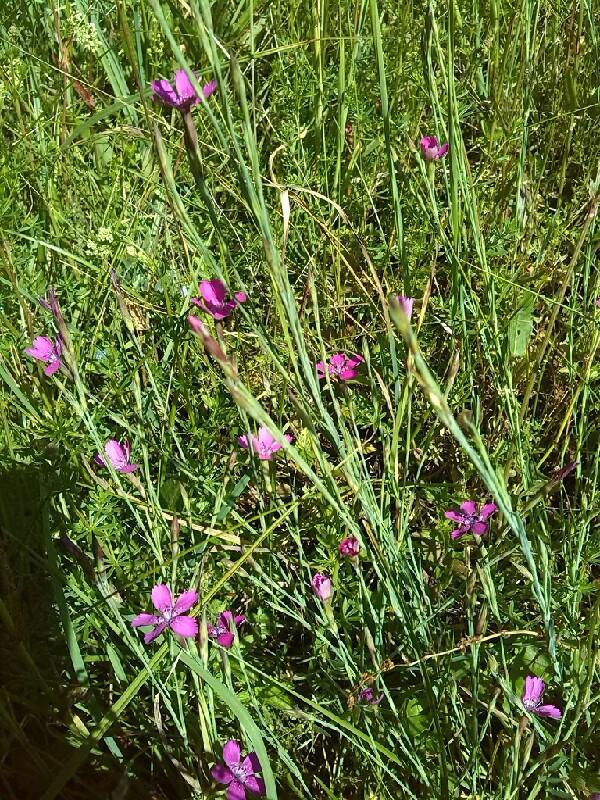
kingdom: Plantae
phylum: Tracheophyta
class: Magnoliopsida
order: Caryophyllales
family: Caryophyllaceae
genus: Dianthus
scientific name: Dianthus deltoides
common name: Maiden pink
